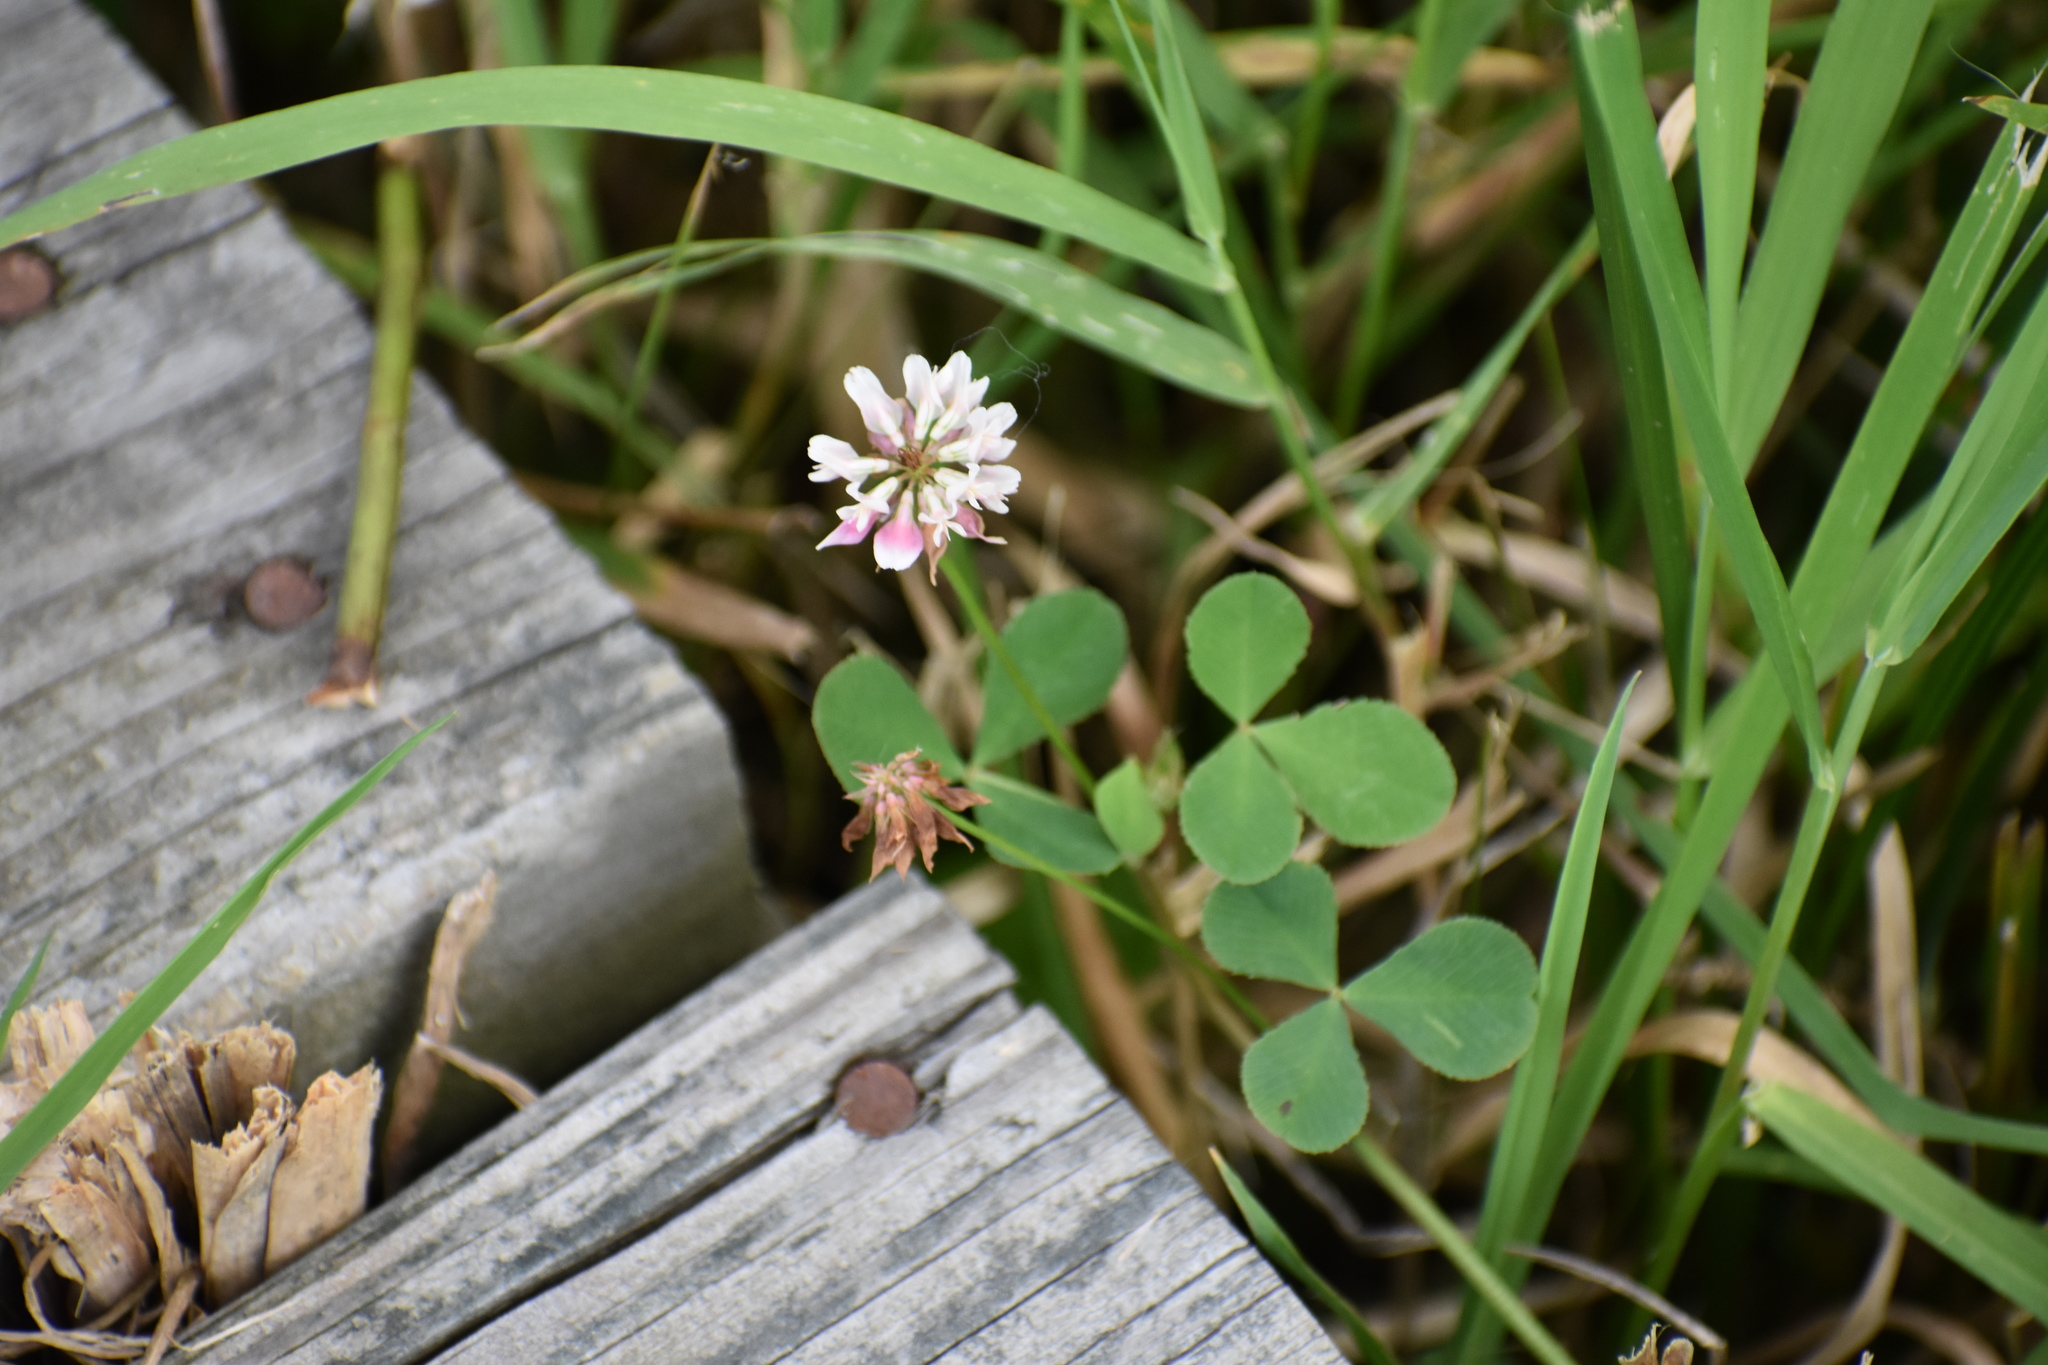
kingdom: Plantae
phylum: Tracheophyta
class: Magnoliopsida
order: Fabales
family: Fabaceae
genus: Trifolium
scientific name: Trifolium repens
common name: White clover
